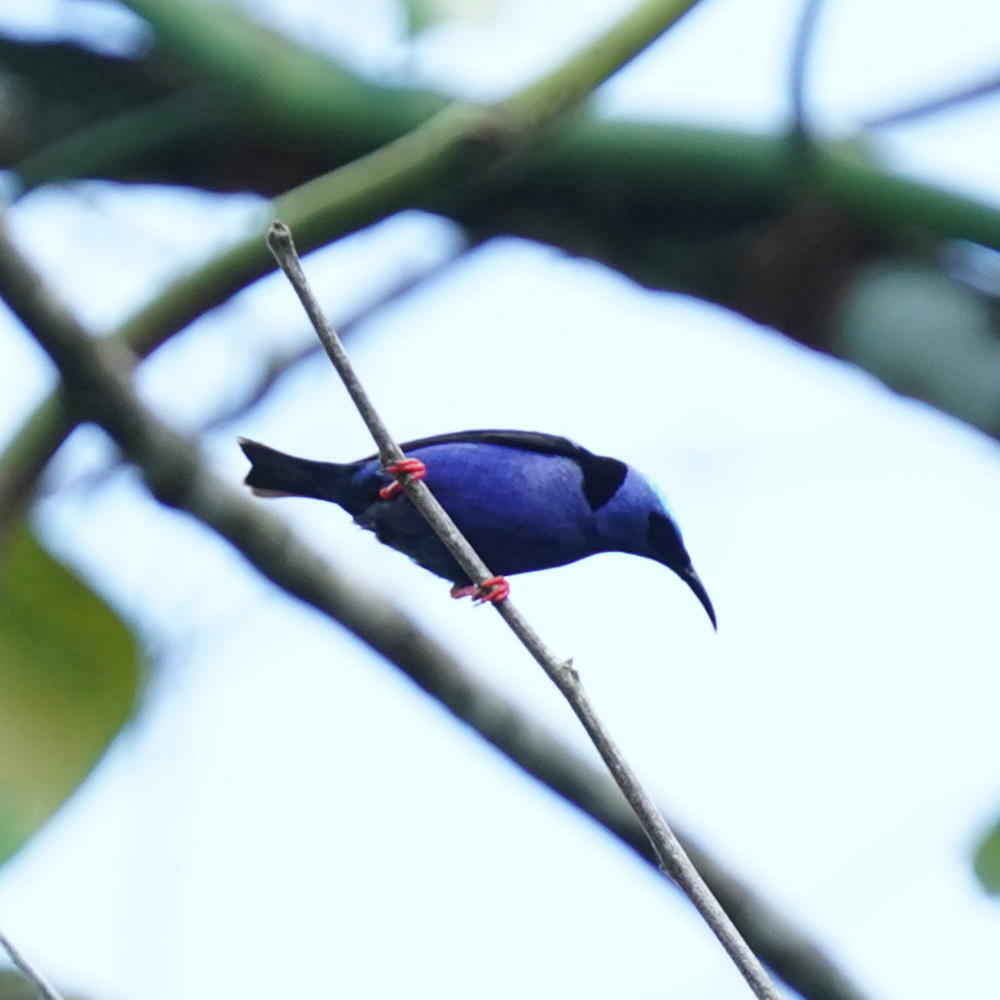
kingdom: Animalia
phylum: Chordata
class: Aves
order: Passeriformes
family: Thraupidae
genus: Cyanerpes
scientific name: Cyanerpes cyaneus
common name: Red-legged honeycreeper
